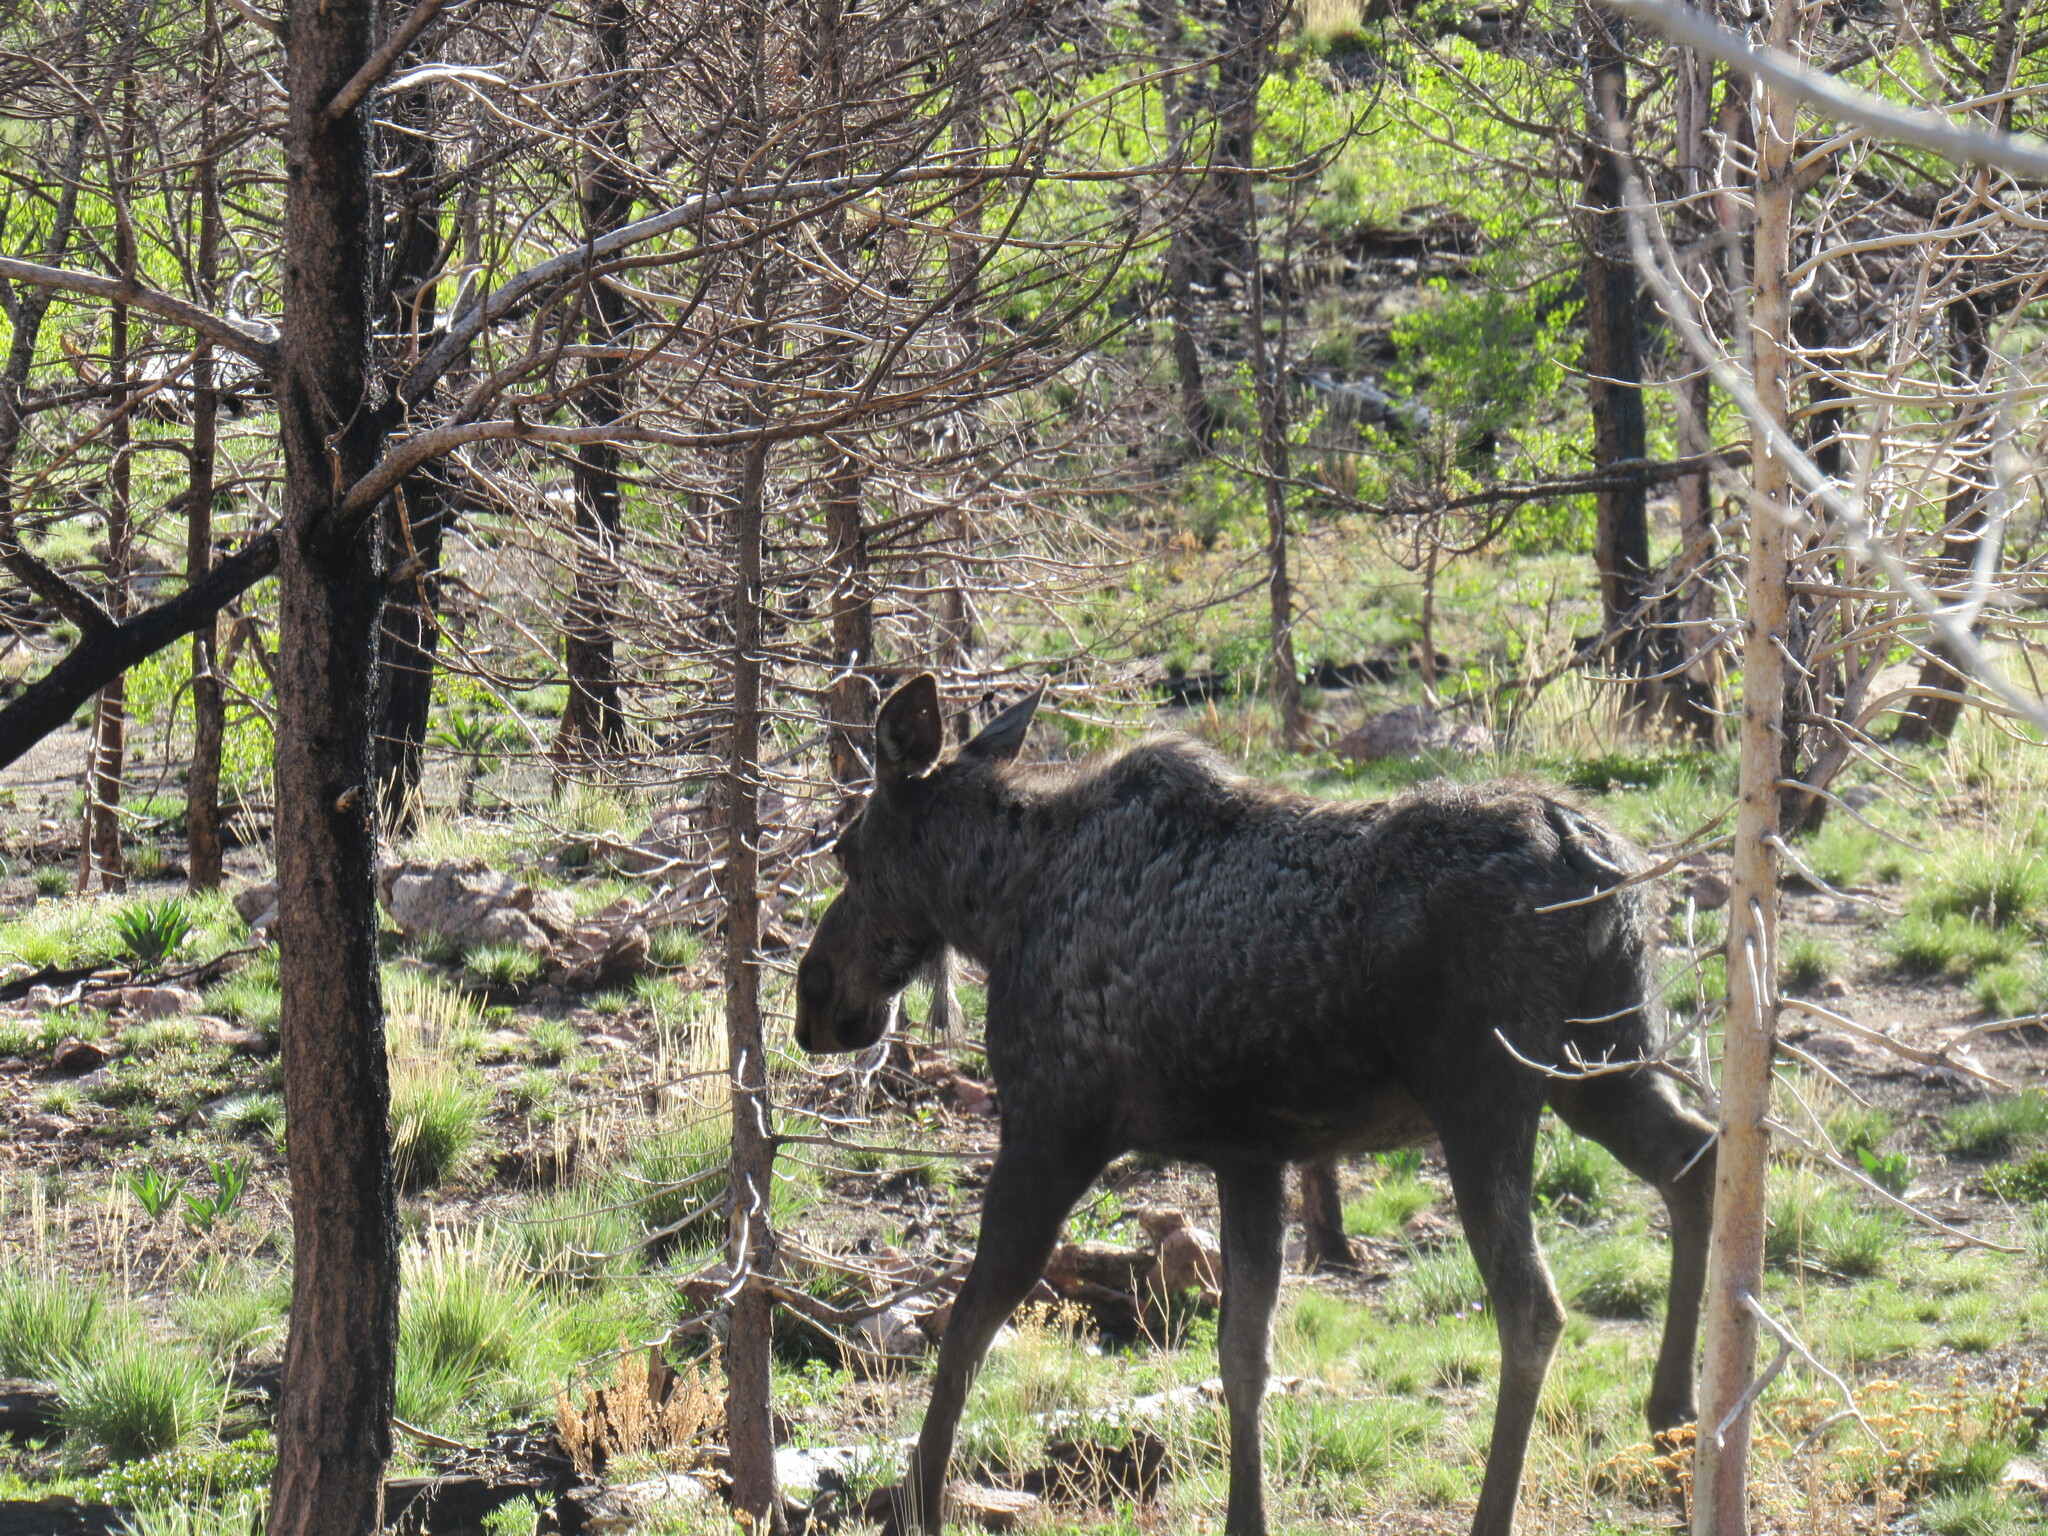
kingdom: Animalia
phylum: Chordata
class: Mammalia
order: Artiodactyla
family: Cervidae
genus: Alces
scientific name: Alces alces
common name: Moose
